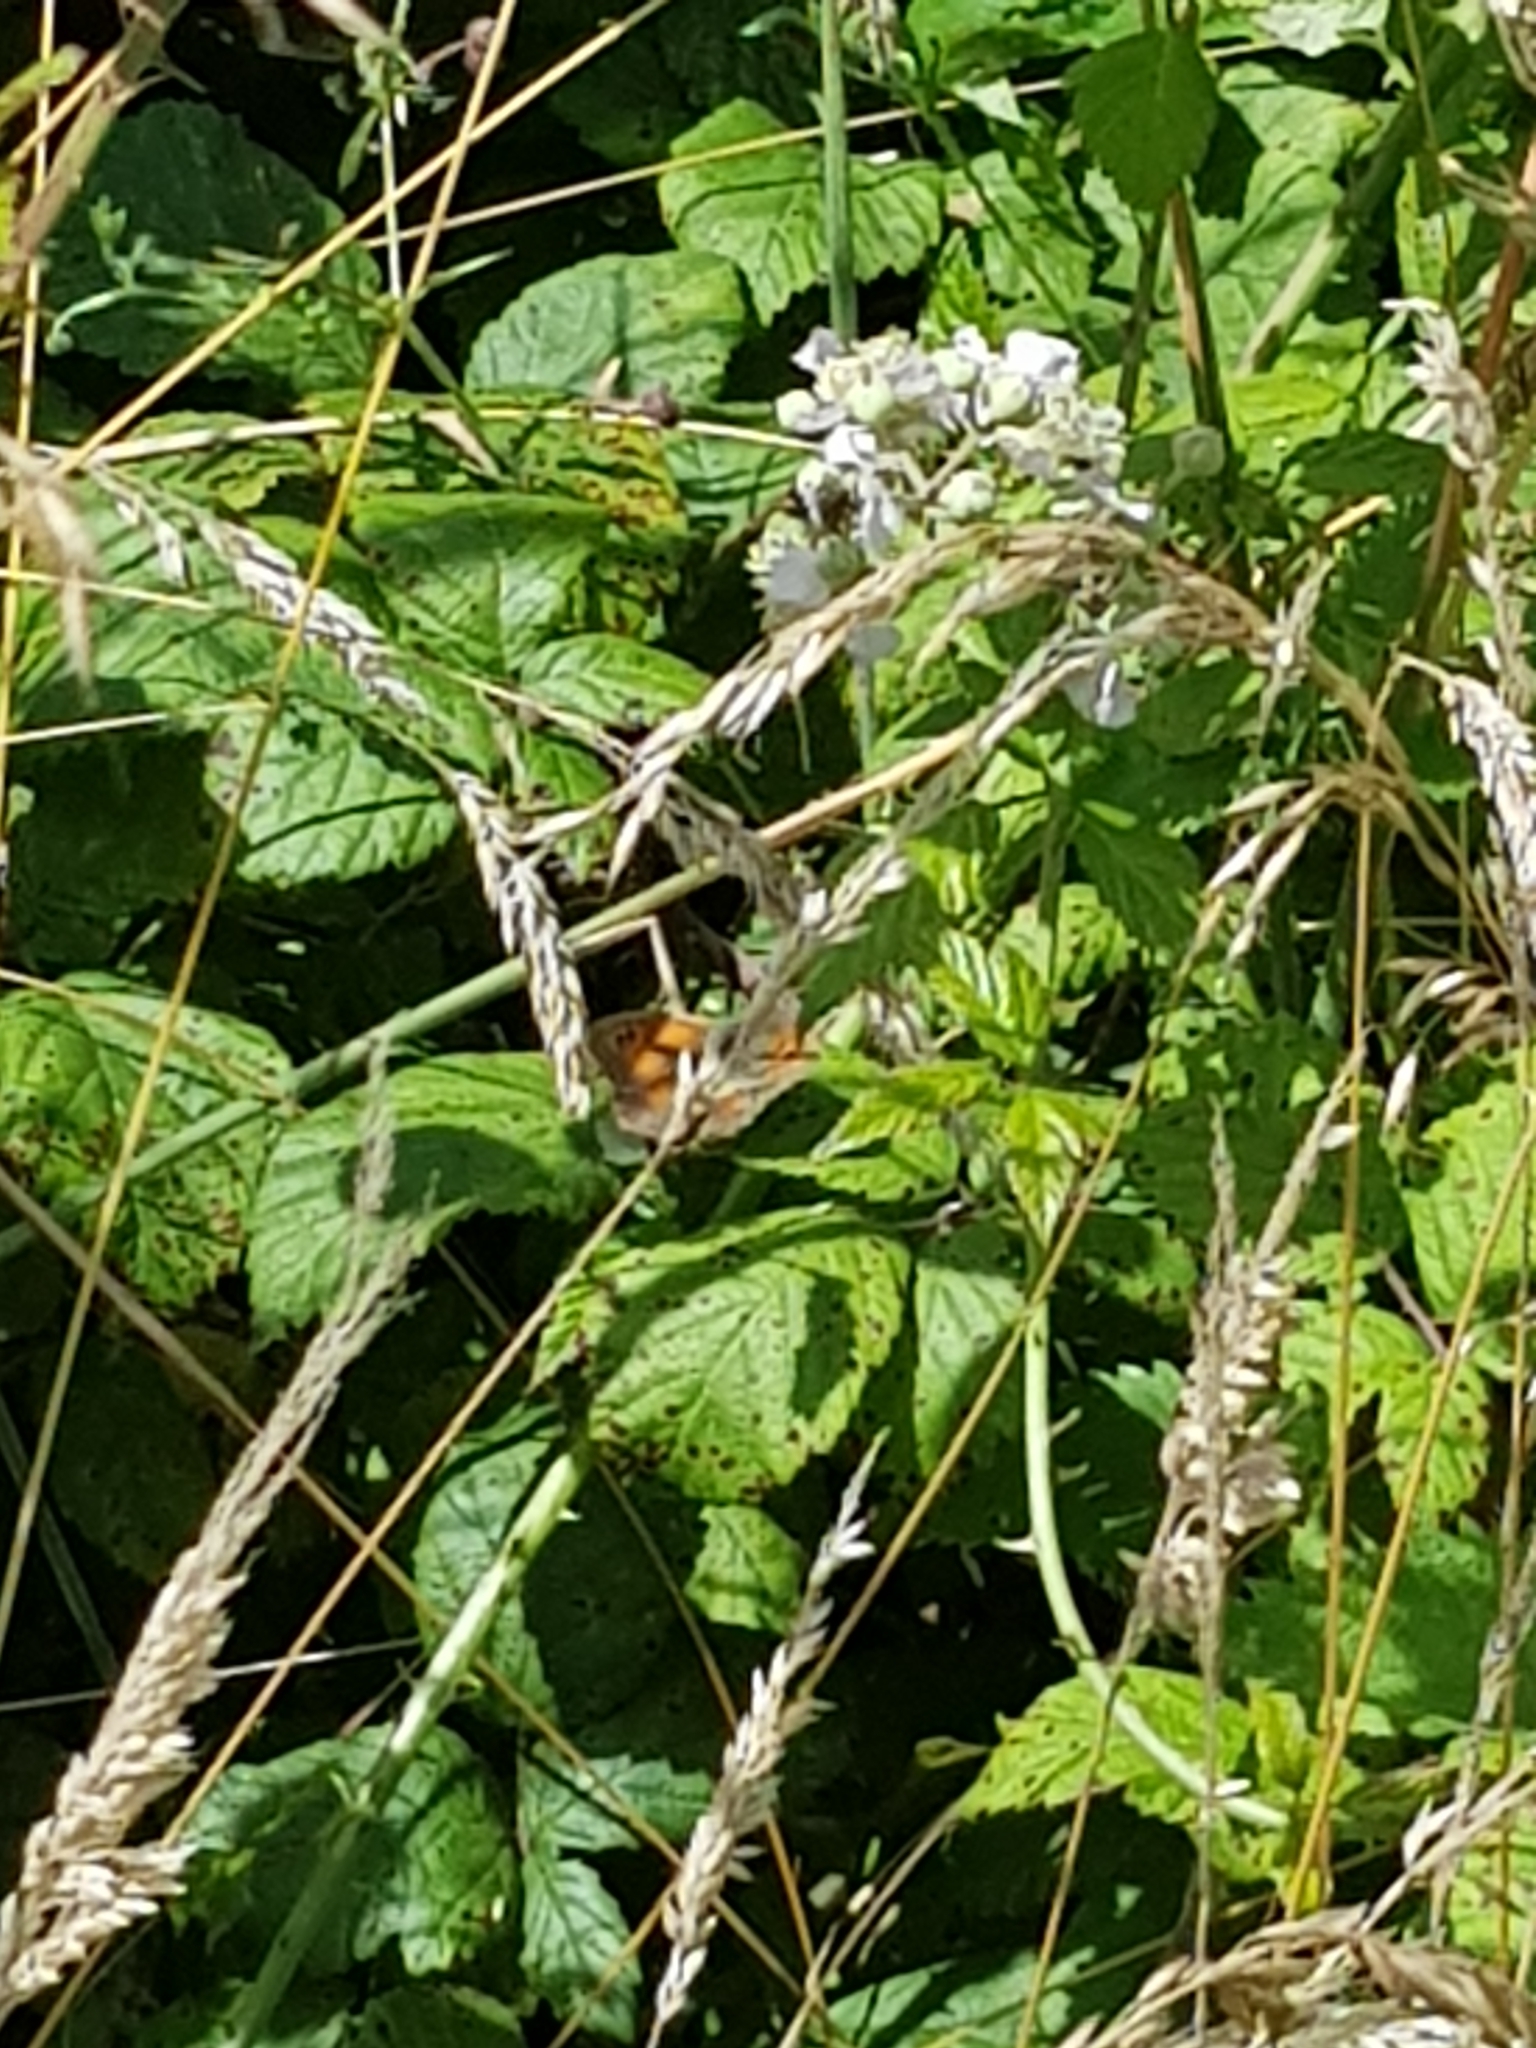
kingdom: Animalia
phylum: Arthropoda
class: Insecta
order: Lepidoptera
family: Nymphalidae
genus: Pyronia
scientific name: Pyronia tithonus
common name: Gatekeeper
